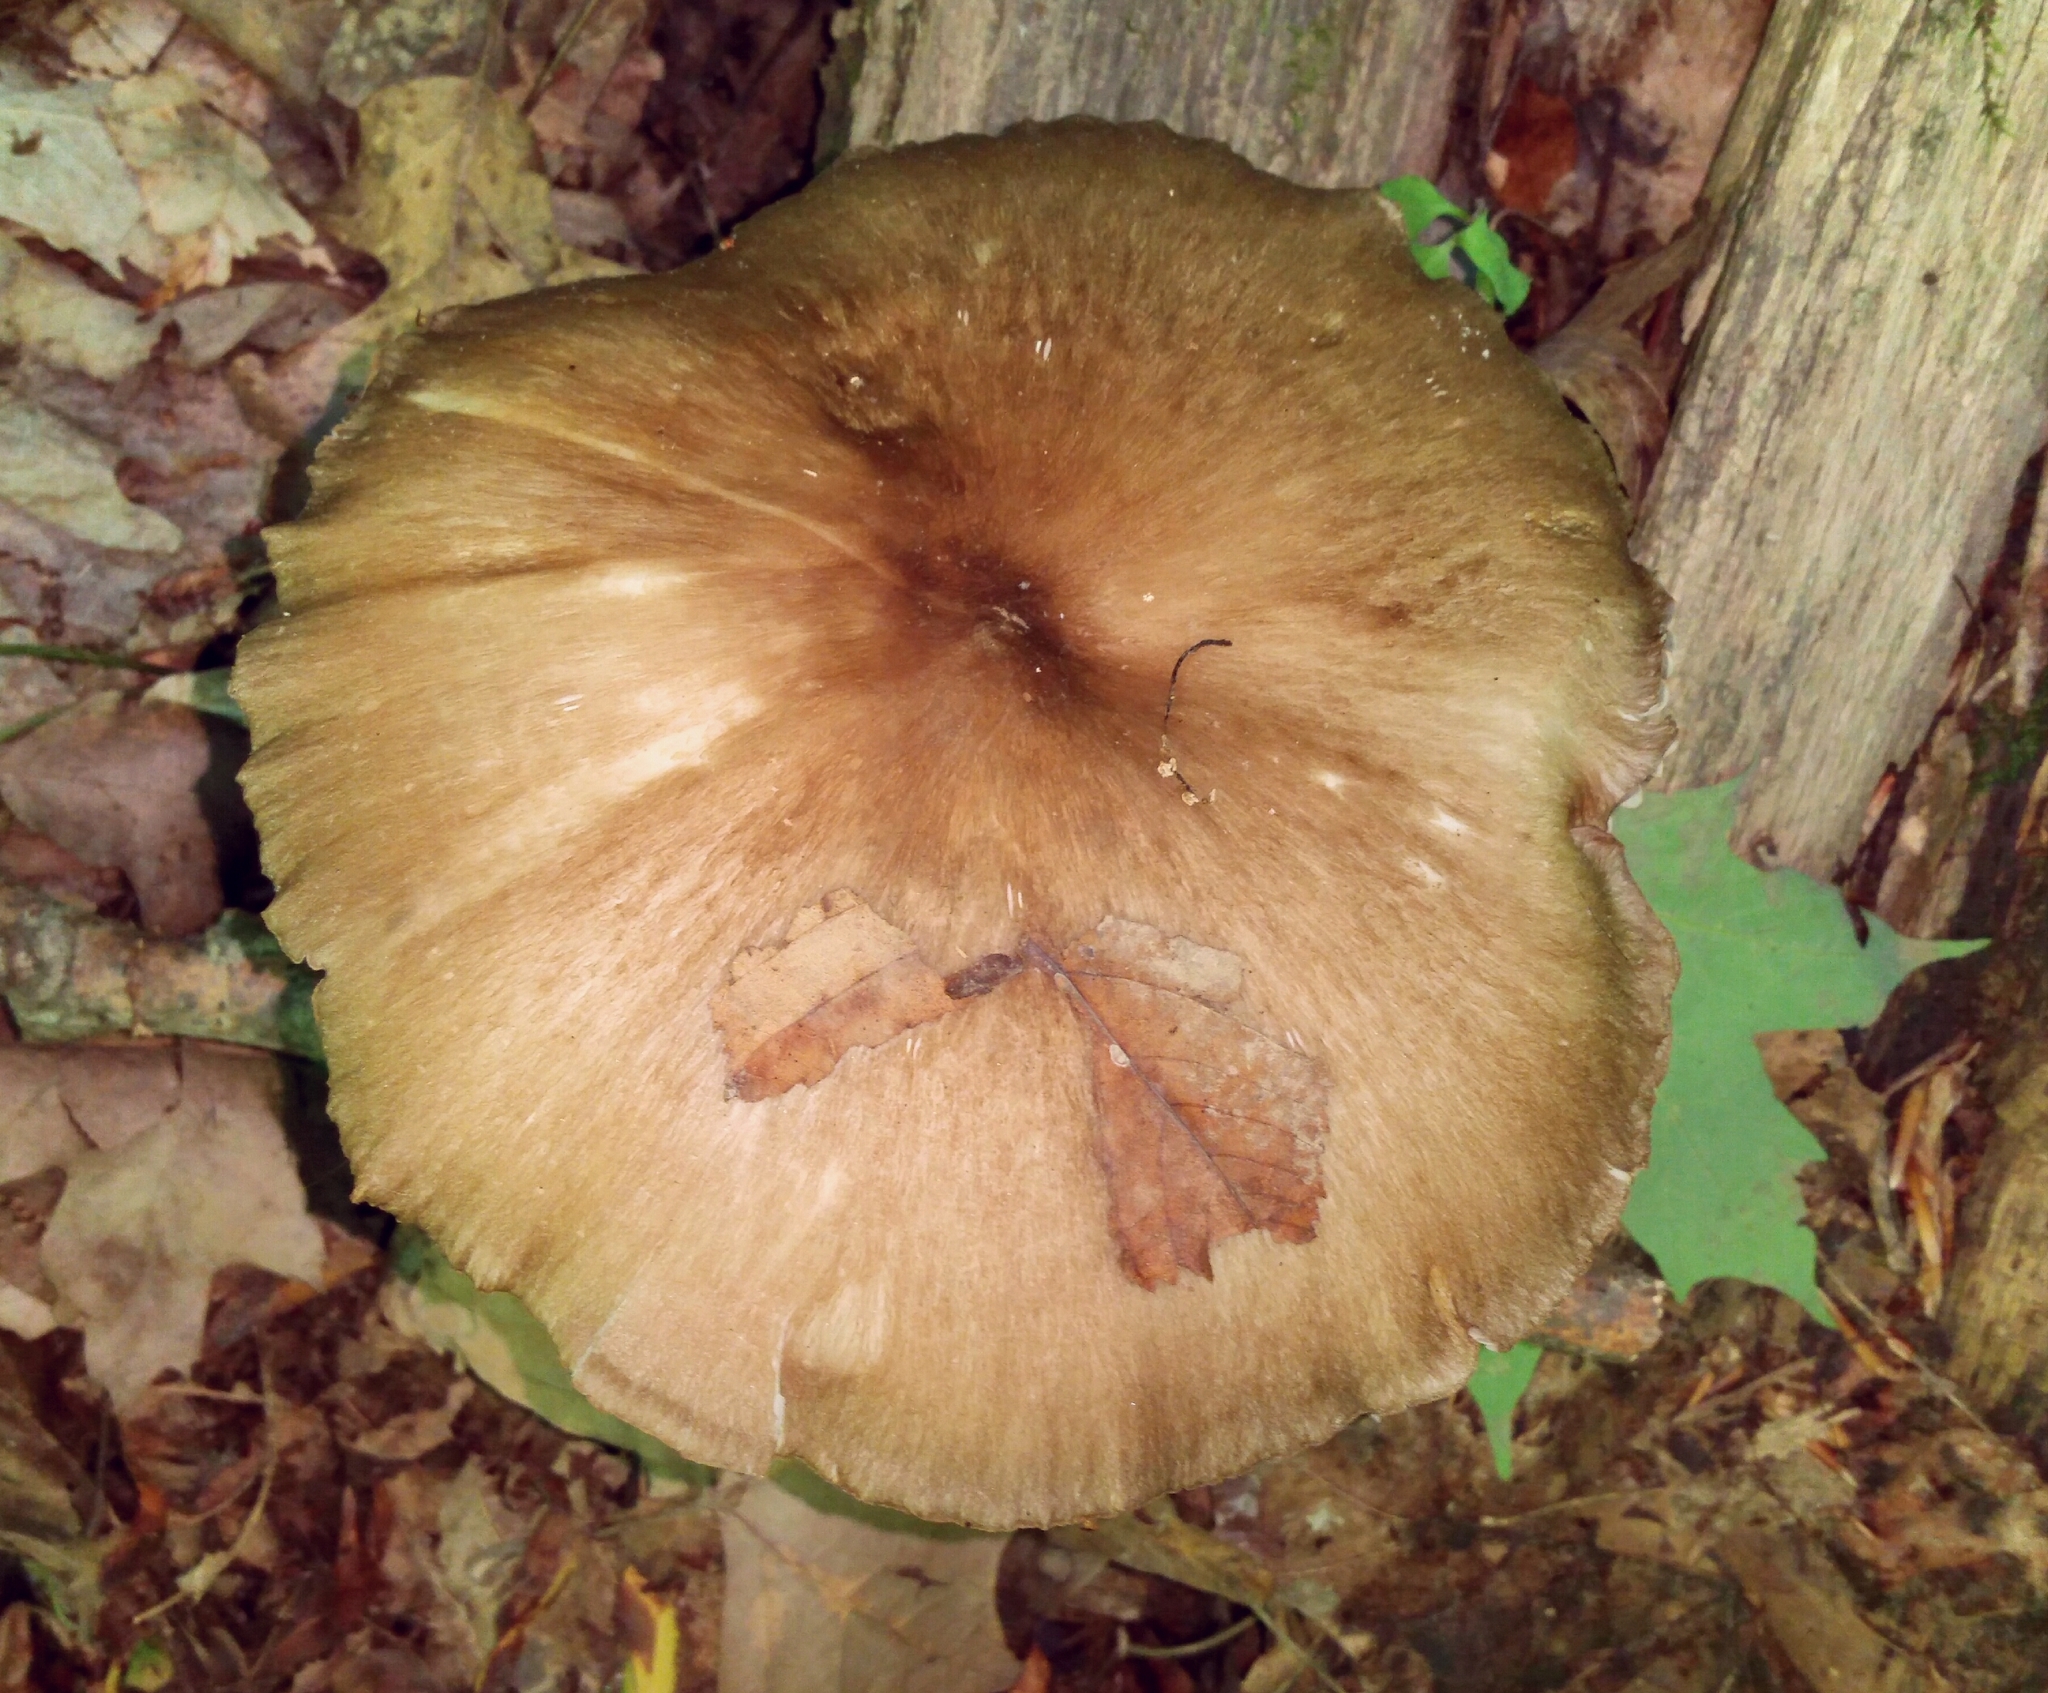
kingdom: Fungi
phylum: Basidiomycota
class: Agaricomycetes
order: Agaricales
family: Tricholomataceae
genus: Megacollybia
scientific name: Megacollybia rodmanii
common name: Eastern american platterful mushroom
